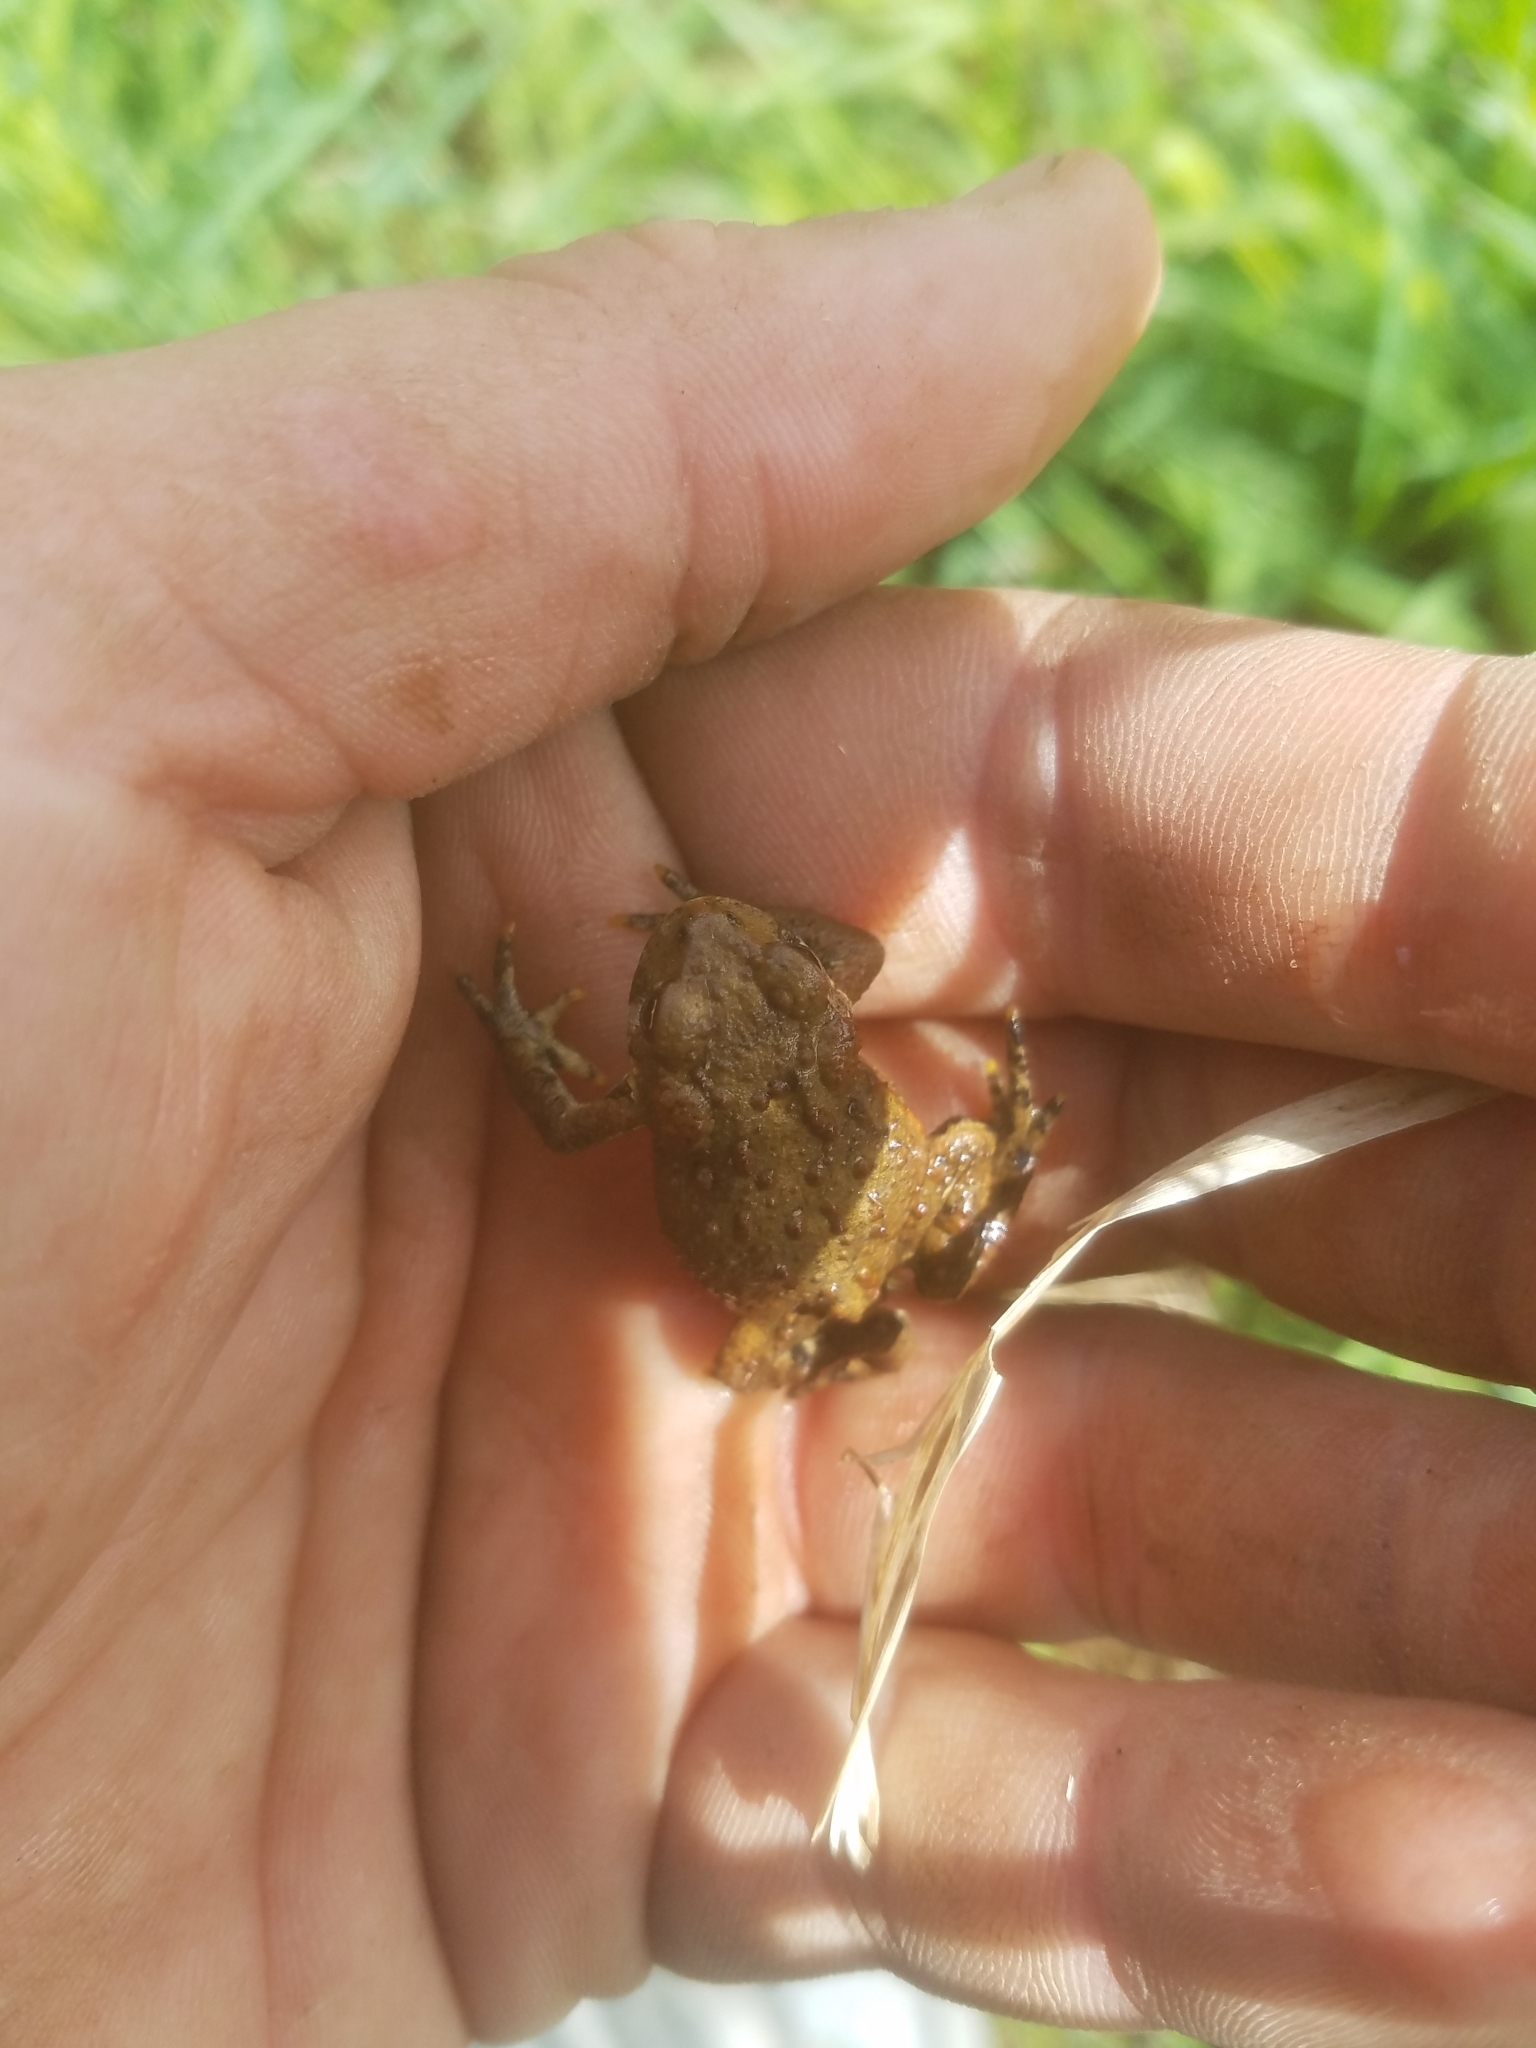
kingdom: Animalia
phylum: Chordata
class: Amphibia
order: Anura
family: Bufonidae
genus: Anaxyrus
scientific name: Anaxyrus boreas
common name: Western toad
